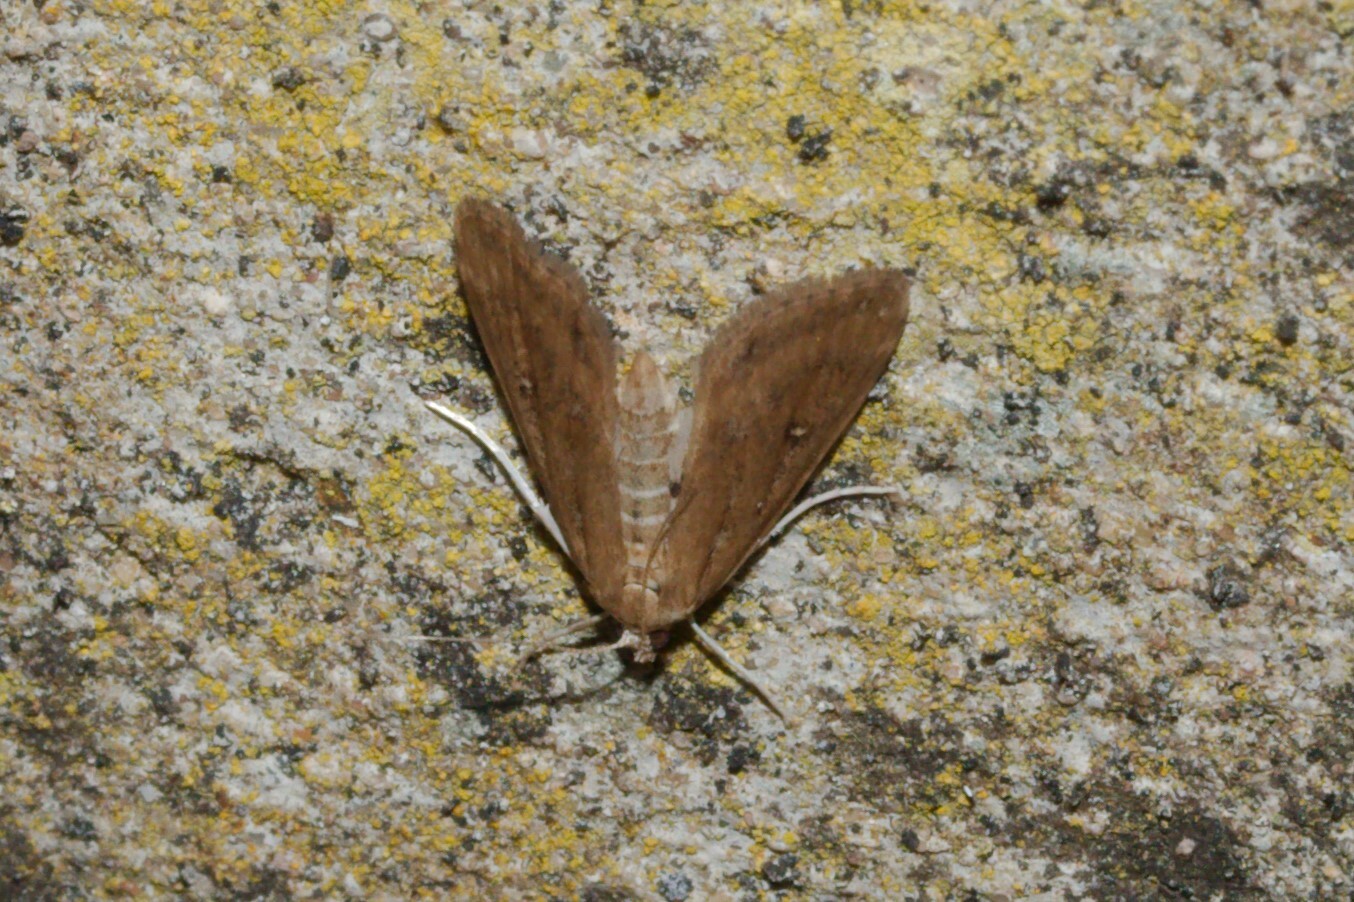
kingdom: Animalia
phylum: Arthropoda
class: Insecta
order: Lepidoptera
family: Crambidae
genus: Parapoynx
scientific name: Parapoynx stratiotata
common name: Ringed china-mark
